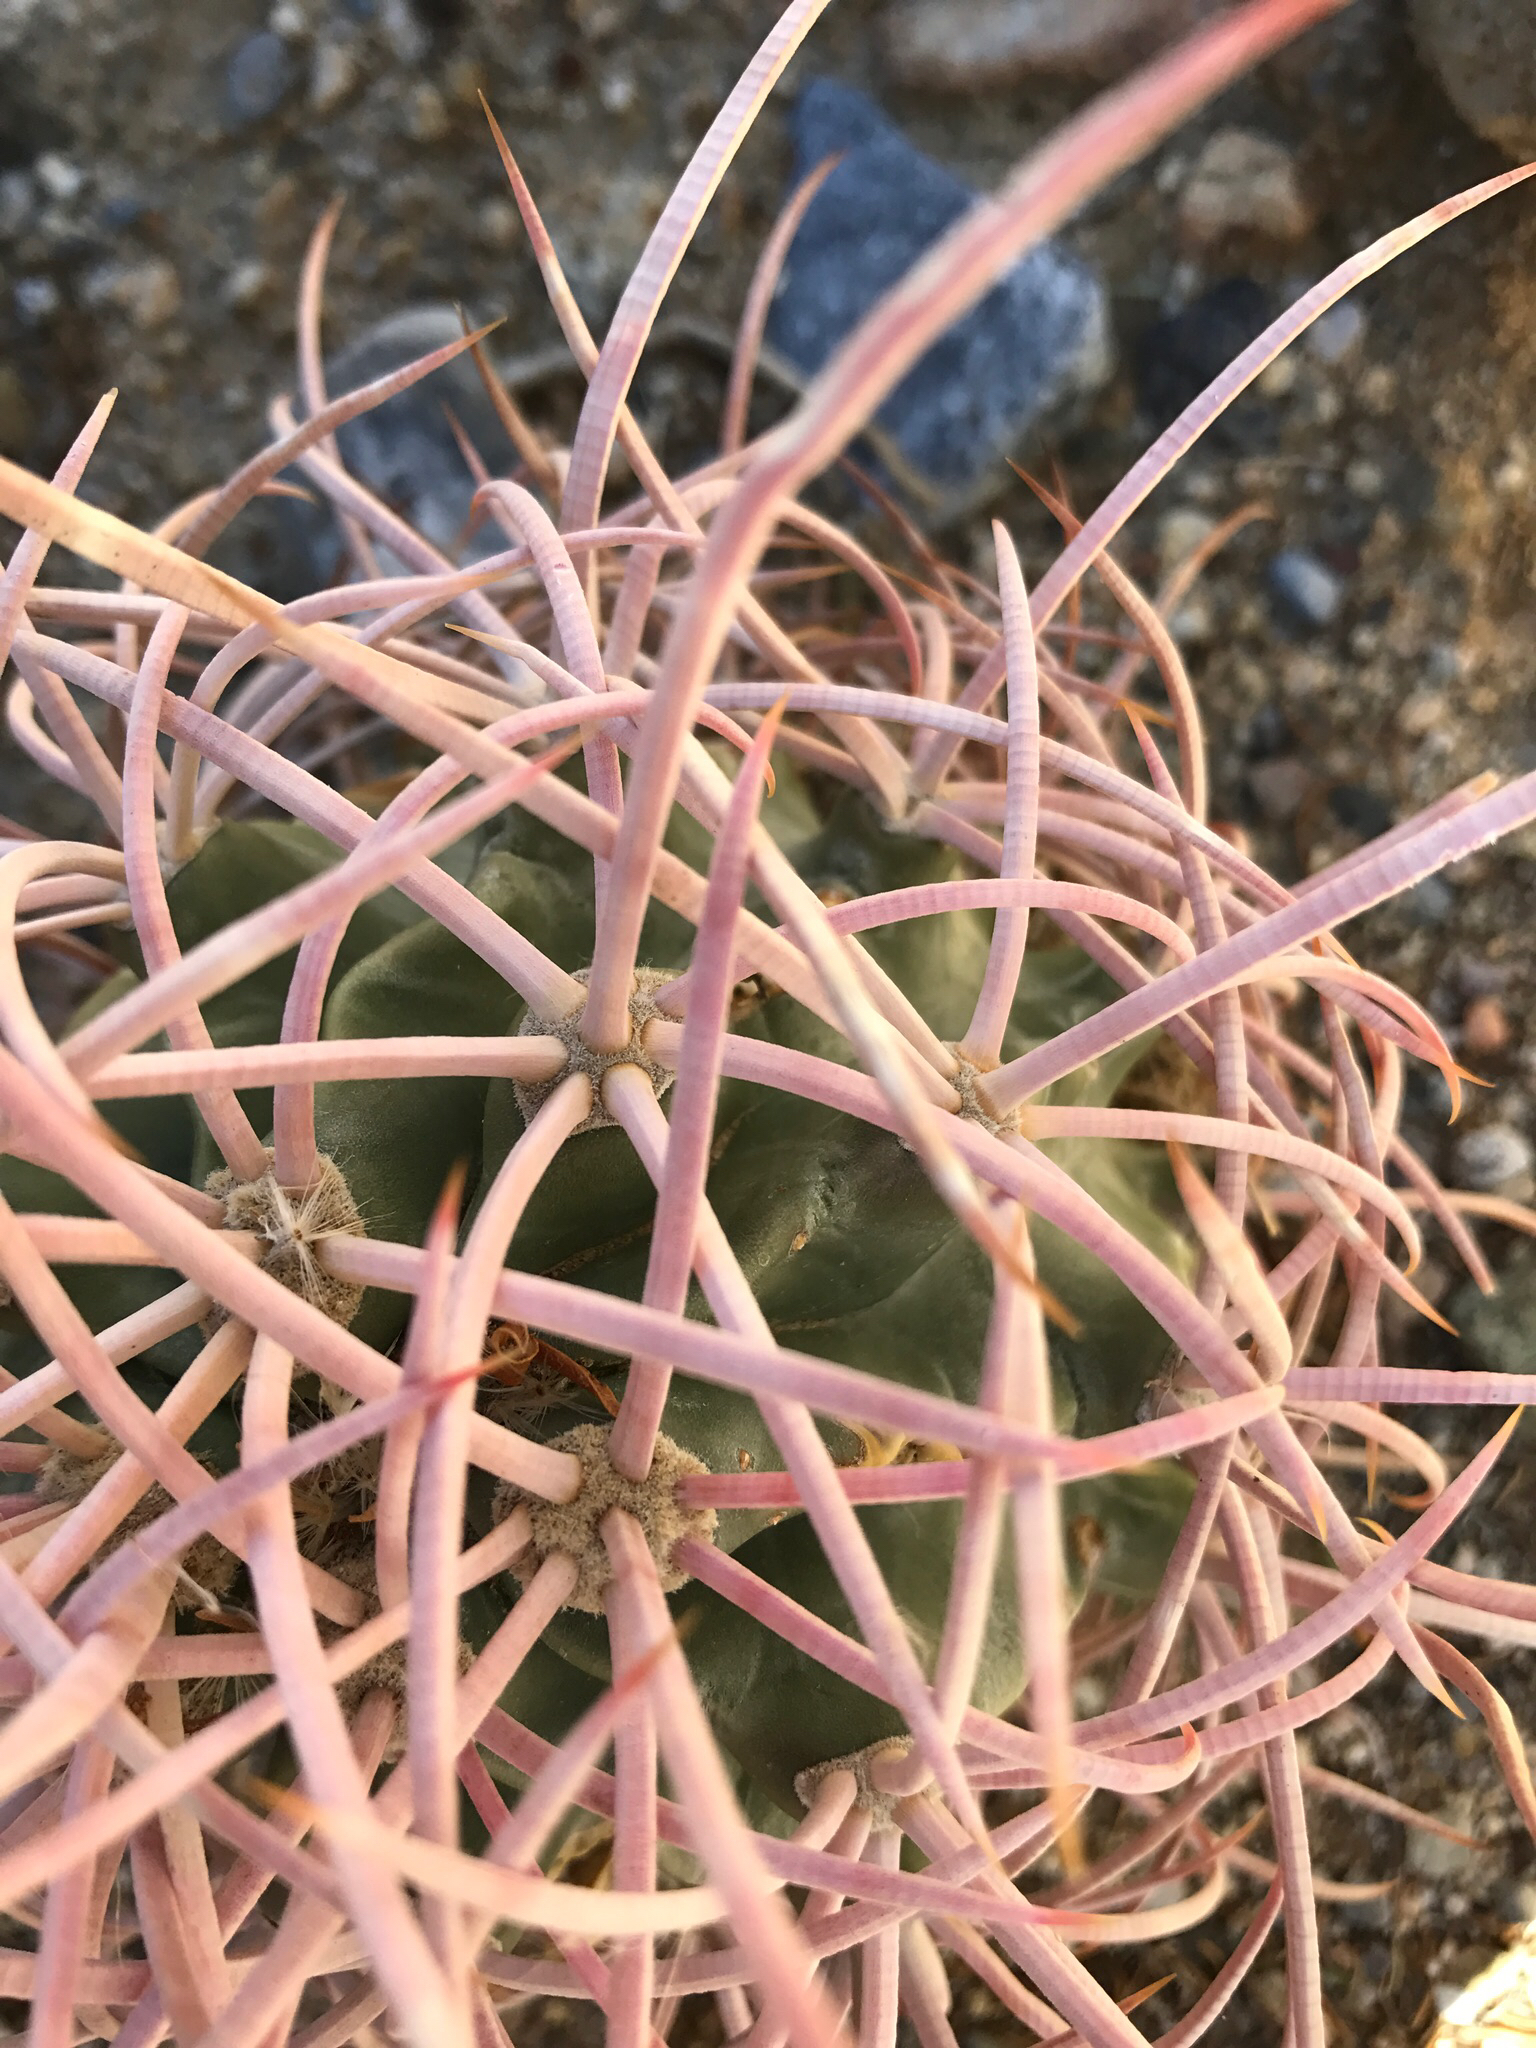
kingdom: Plantae
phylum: Tracheophyta
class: Magnoliopsida
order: Caryophyllales
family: Cactaceae
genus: Echinocactus
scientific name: Echinocactus polycephalus
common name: Cottontop cactus
